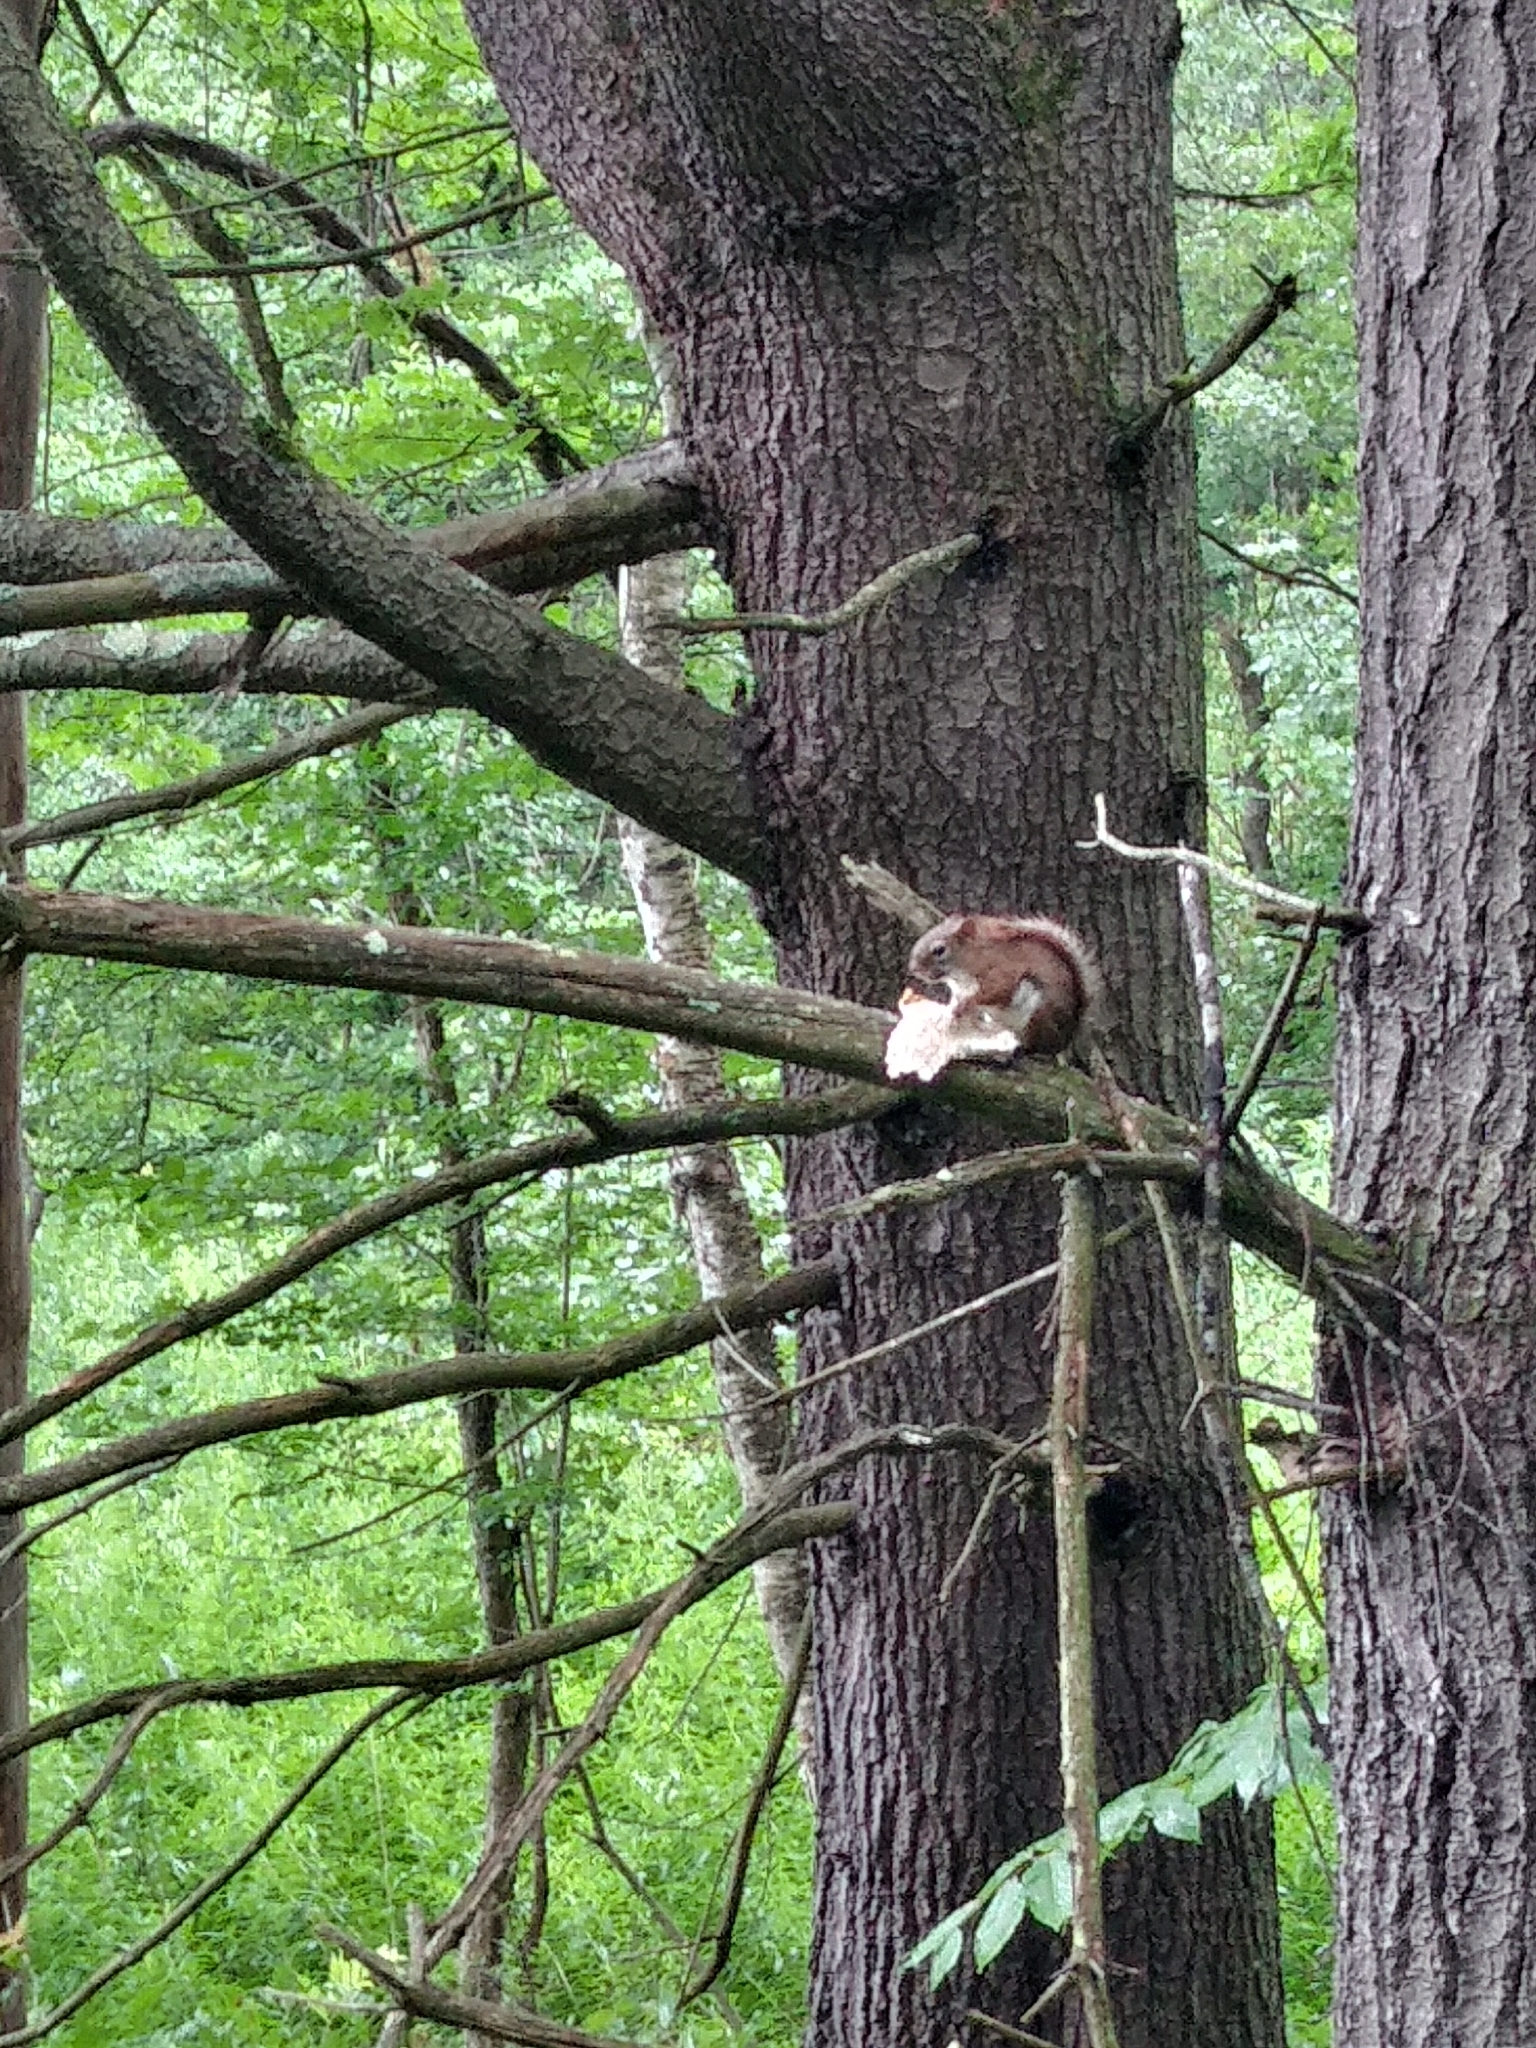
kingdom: Animalia
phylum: Chordata
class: Mammalia
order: Rodentia
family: Sciuridae
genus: Tamiasciurus
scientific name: Tamiasciurus hudsonicus
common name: Red squirrel
